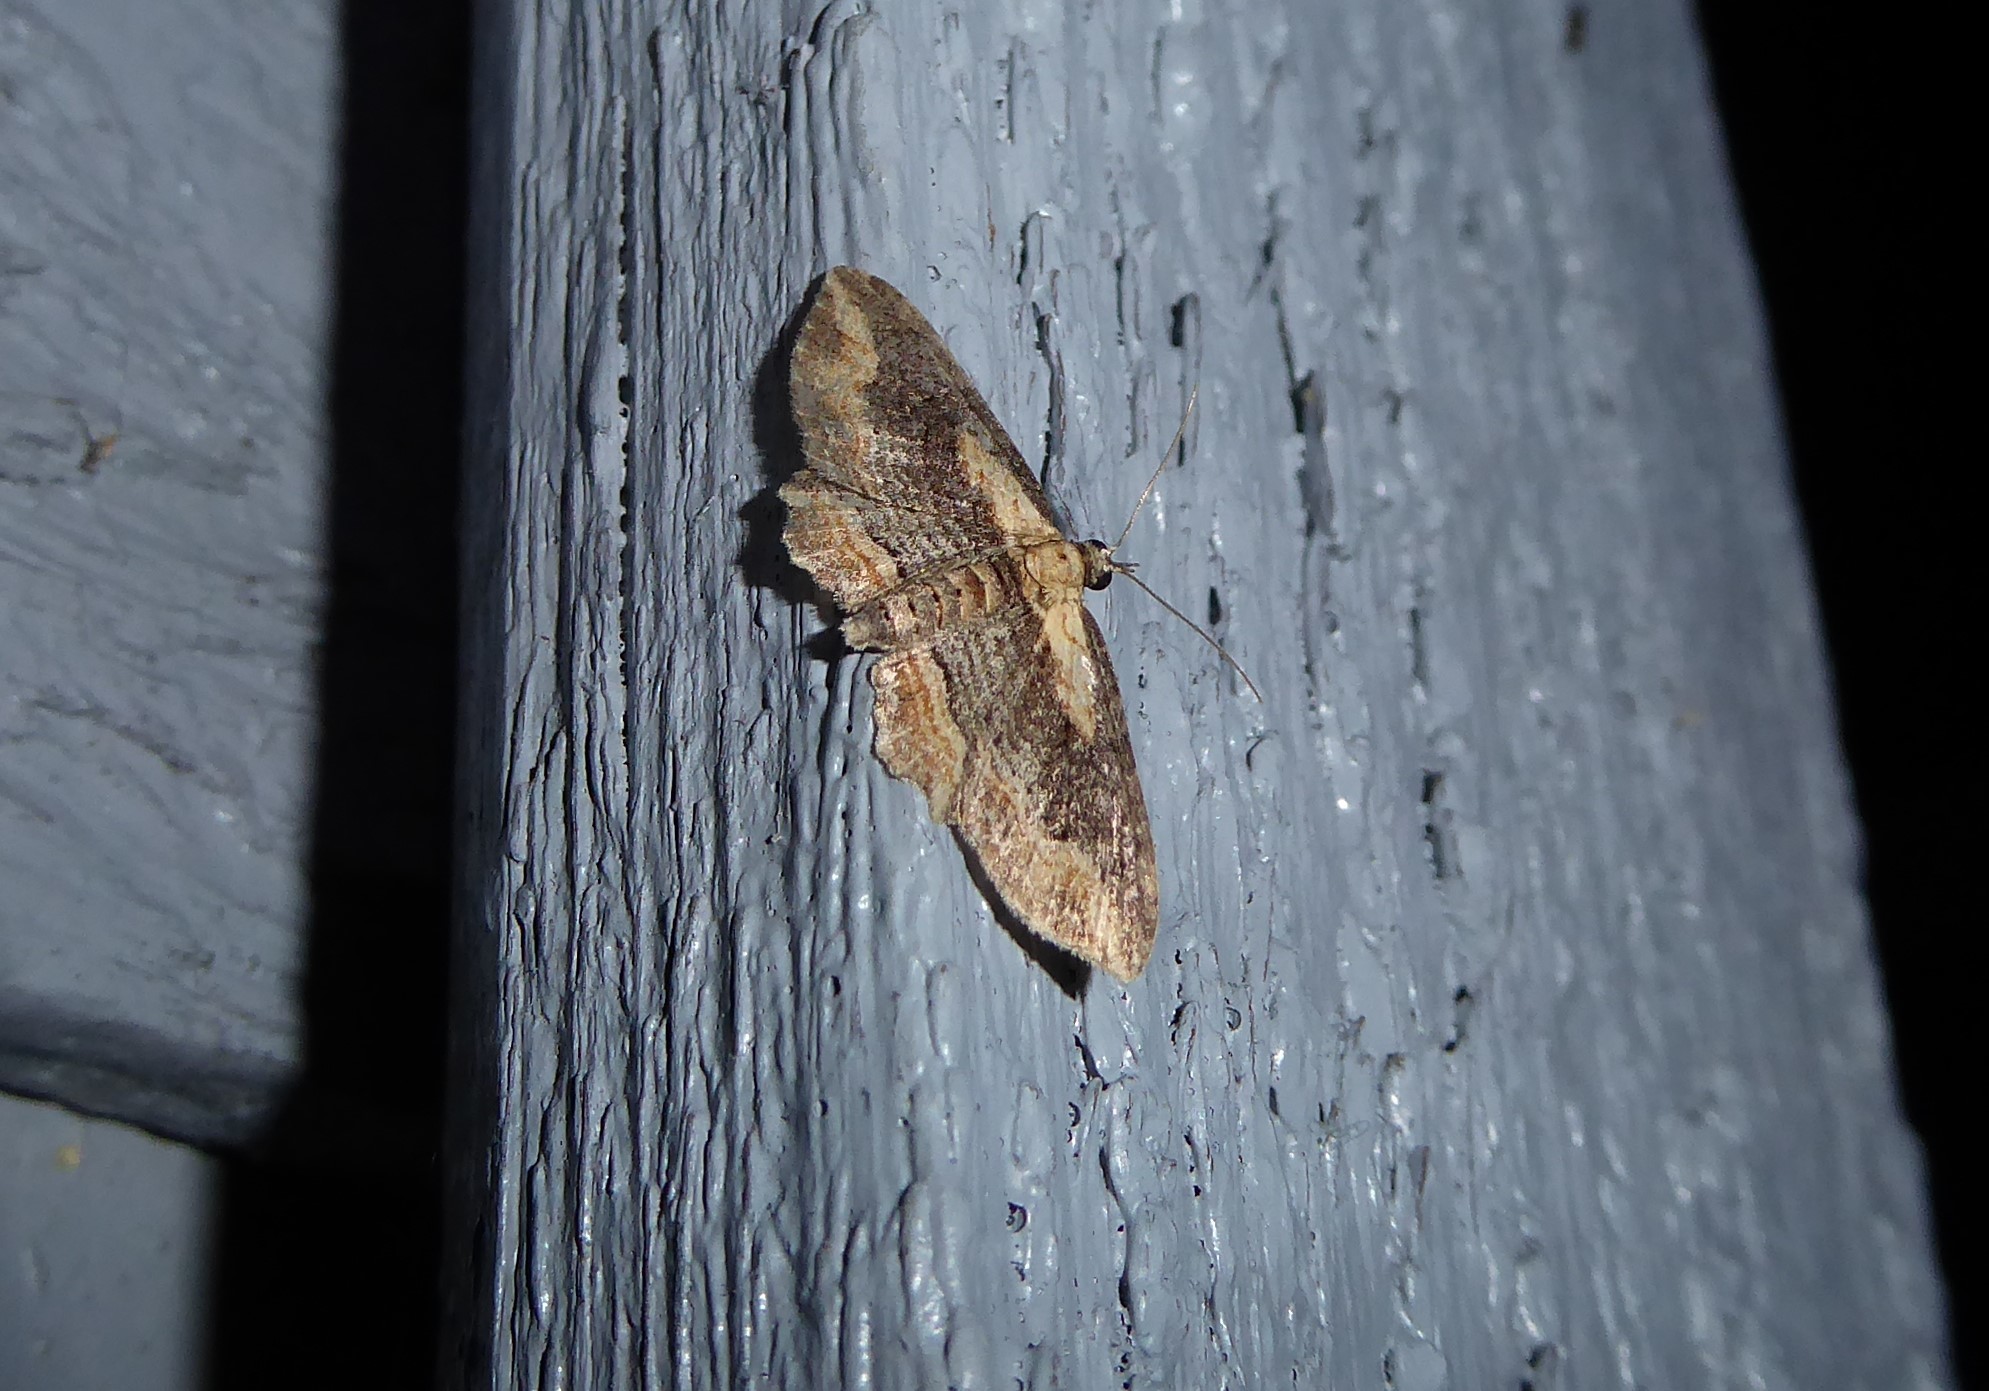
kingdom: Animalia
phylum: Arthropoda
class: Insecta
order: Lepidoptera
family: Geometridae
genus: Chloroclystis
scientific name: Chloroclystis filata
